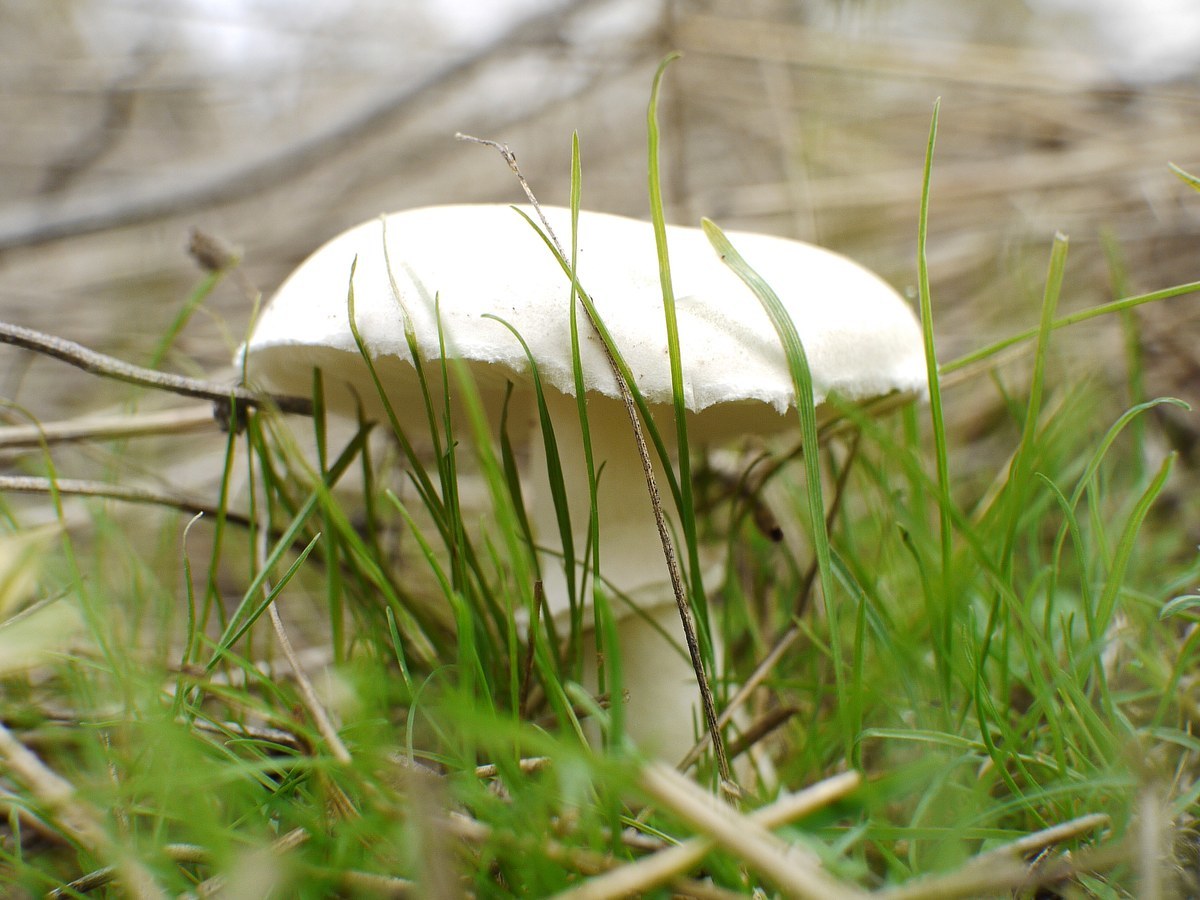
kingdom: Fungi
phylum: Basidiomycota
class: Agaricomycetes
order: Agaricales
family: Agaricaceae
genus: Leucoagaricus
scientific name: Leucoagaricus leucothites
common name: White dapperling
